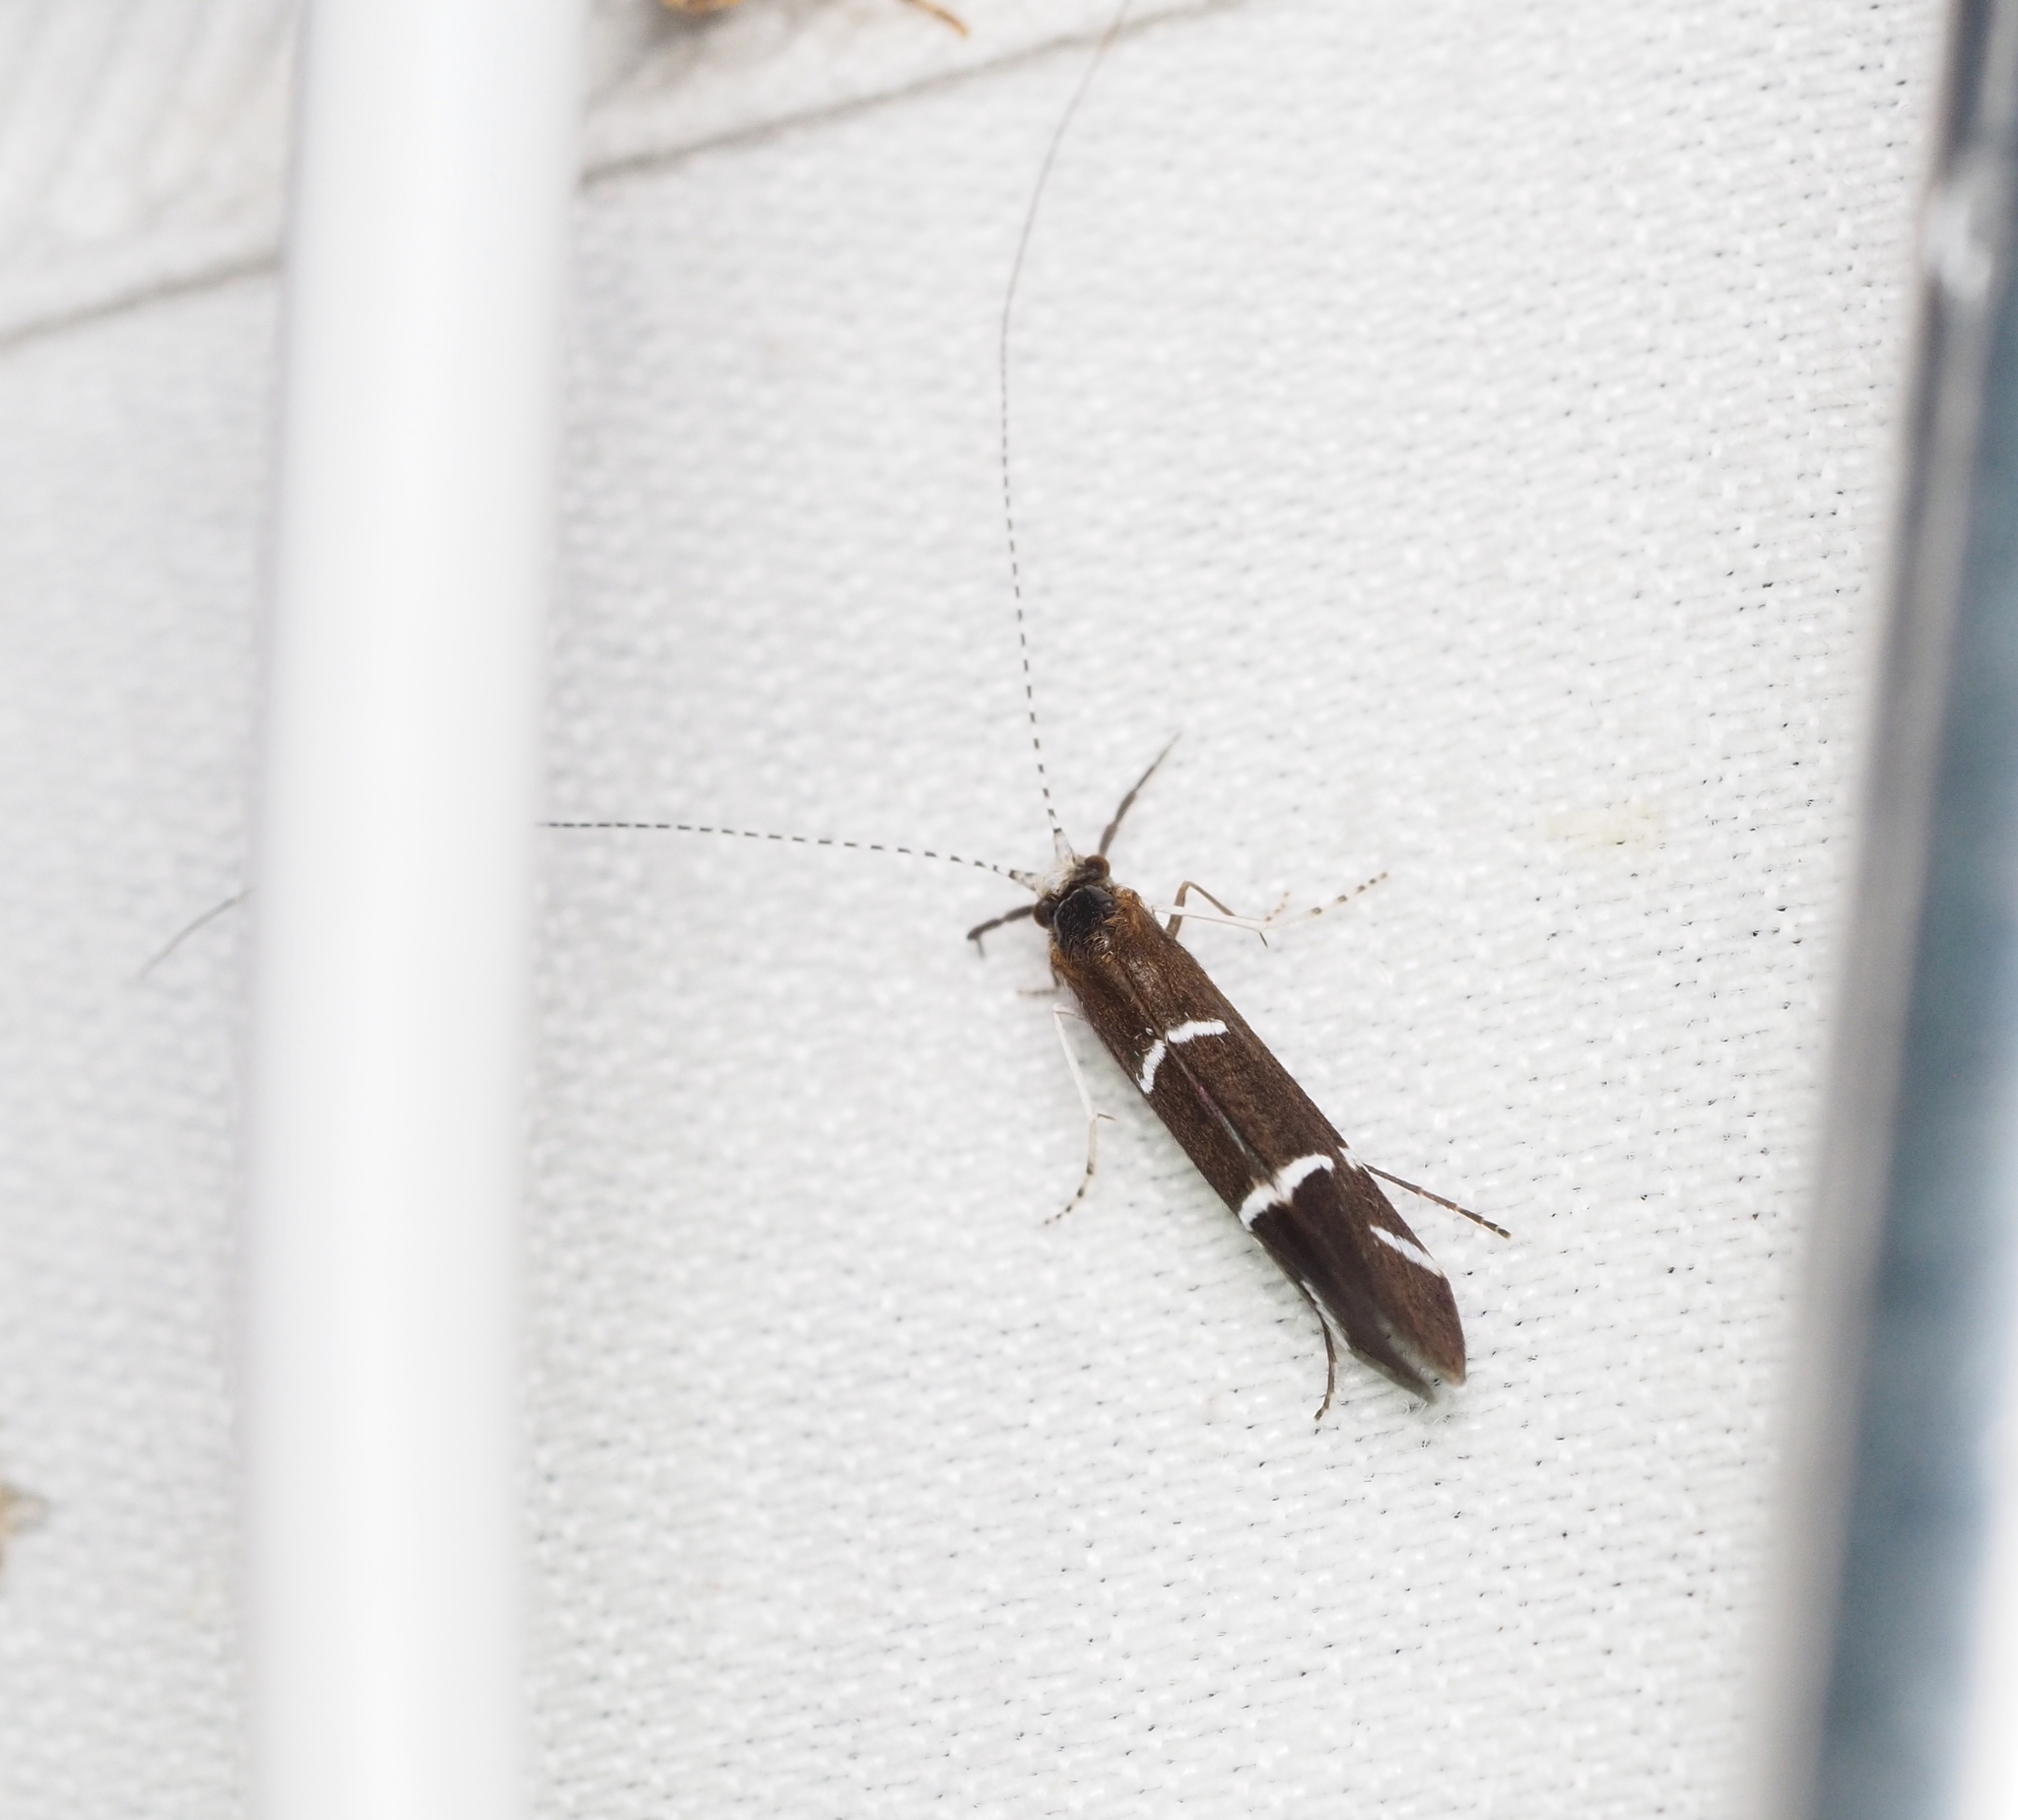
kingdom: Animalia
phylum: Arthropoda
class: Insecta
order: Trichoptera
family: Leptoceridae
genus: Athripsodes
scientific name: Athripsodes albifrons
